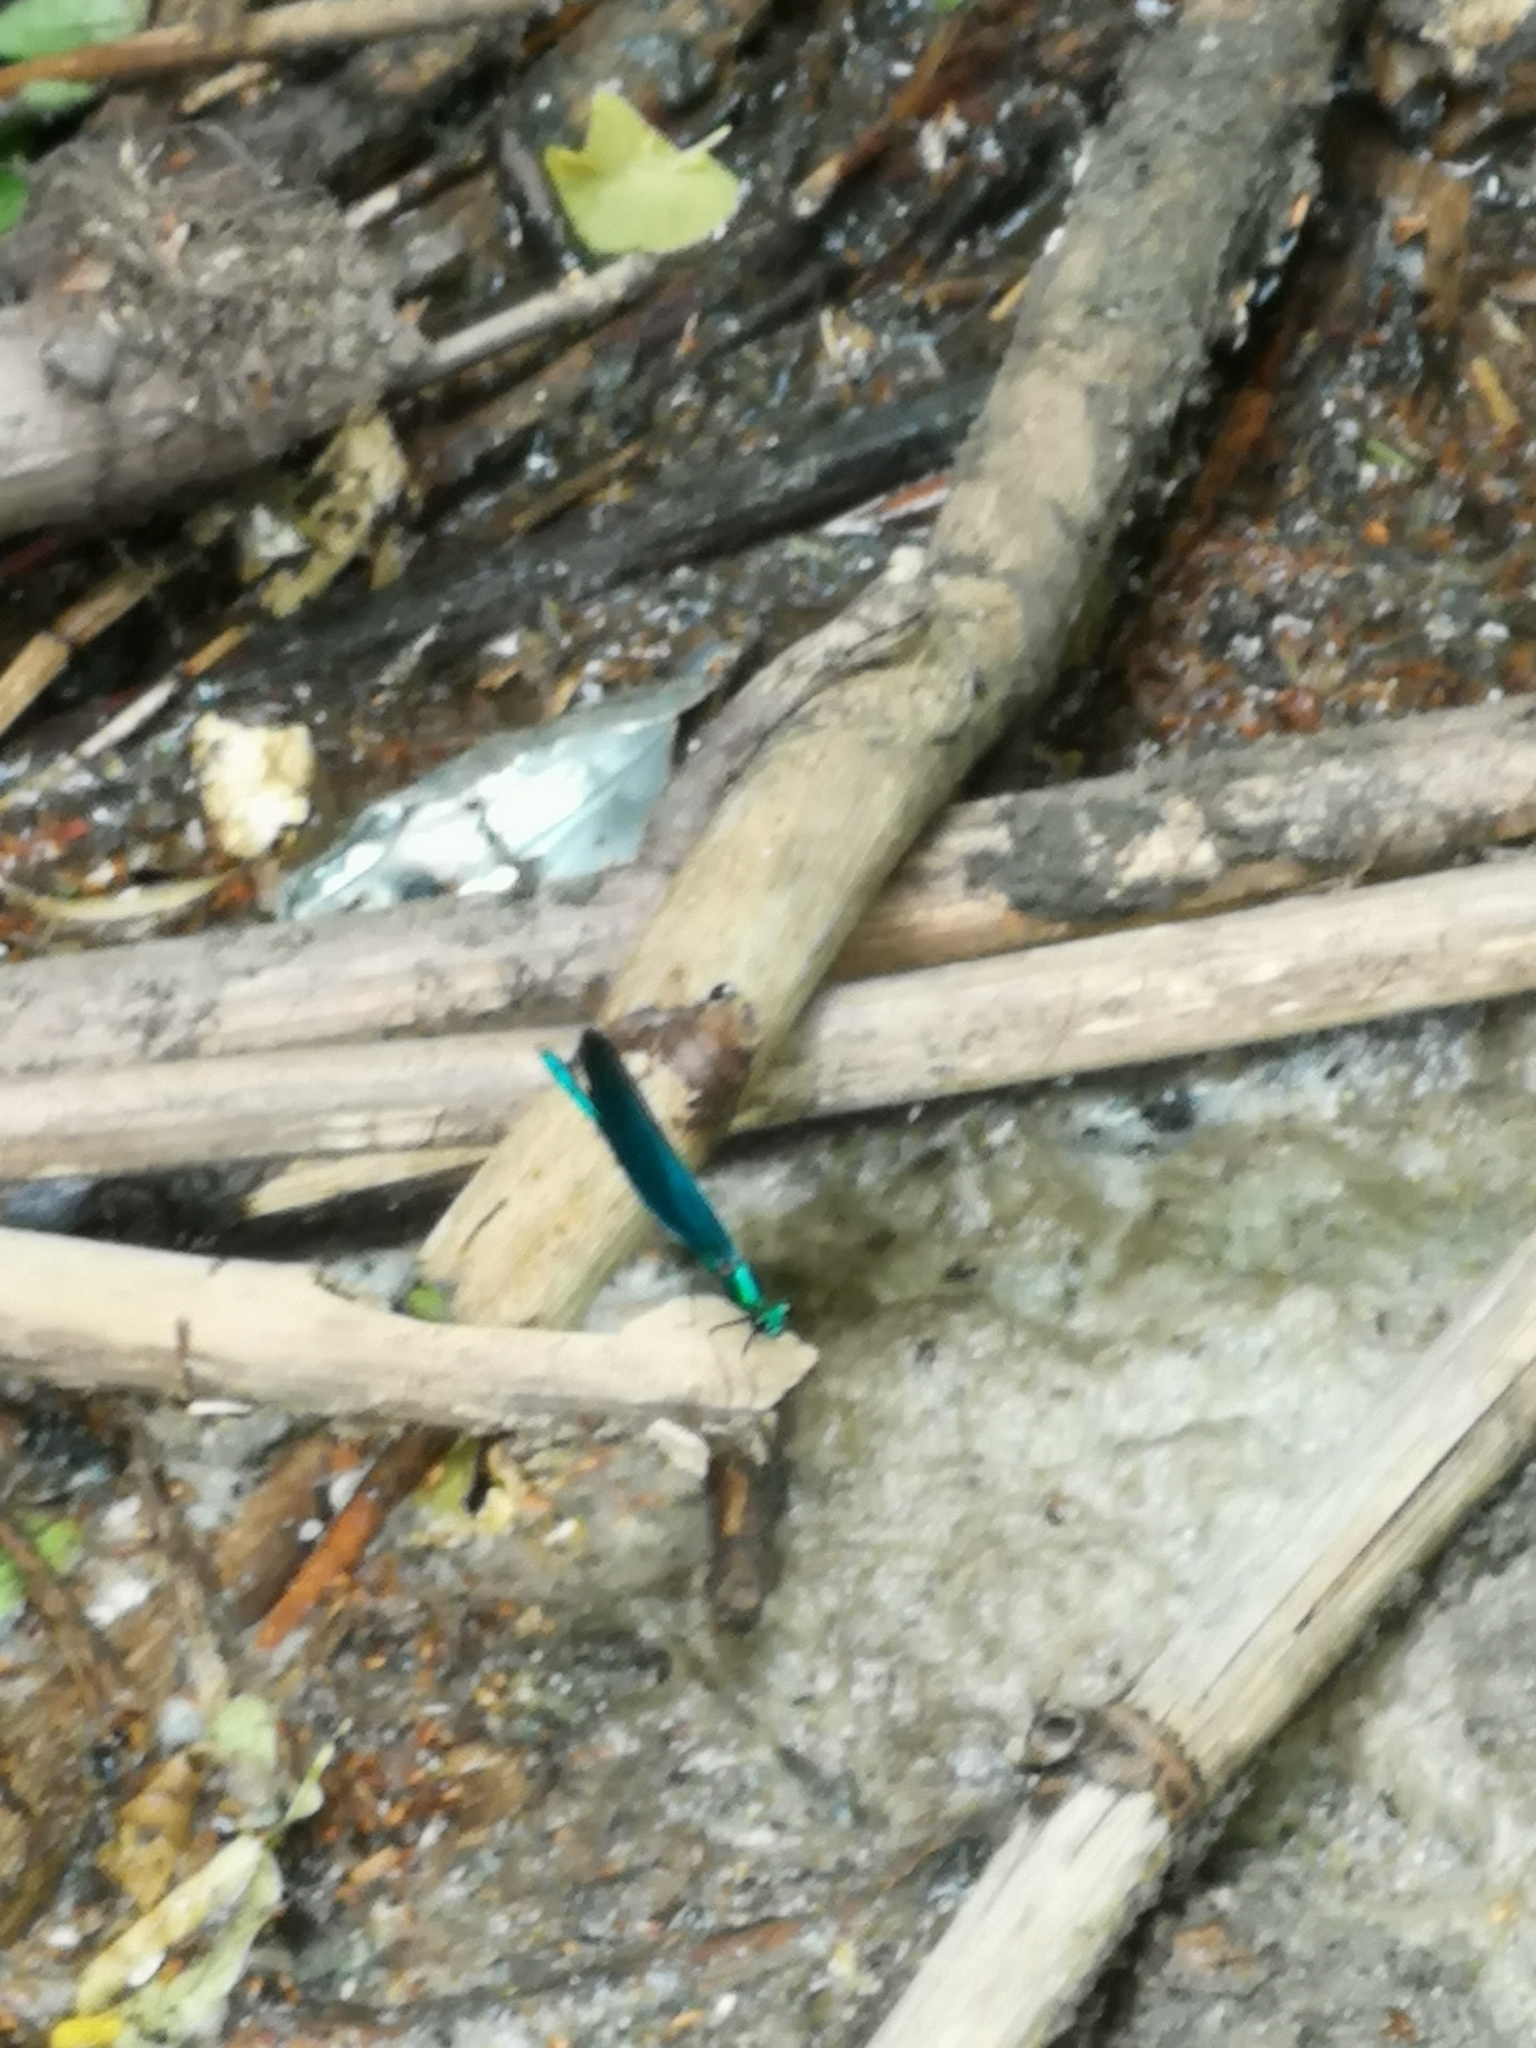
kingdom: Animalia
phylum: Arthropoda
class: Insecta
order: Odonata
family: Calopterygidae
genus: Calopteryx
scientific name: Calopteryx virgo
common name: Beautiful demoiselle
